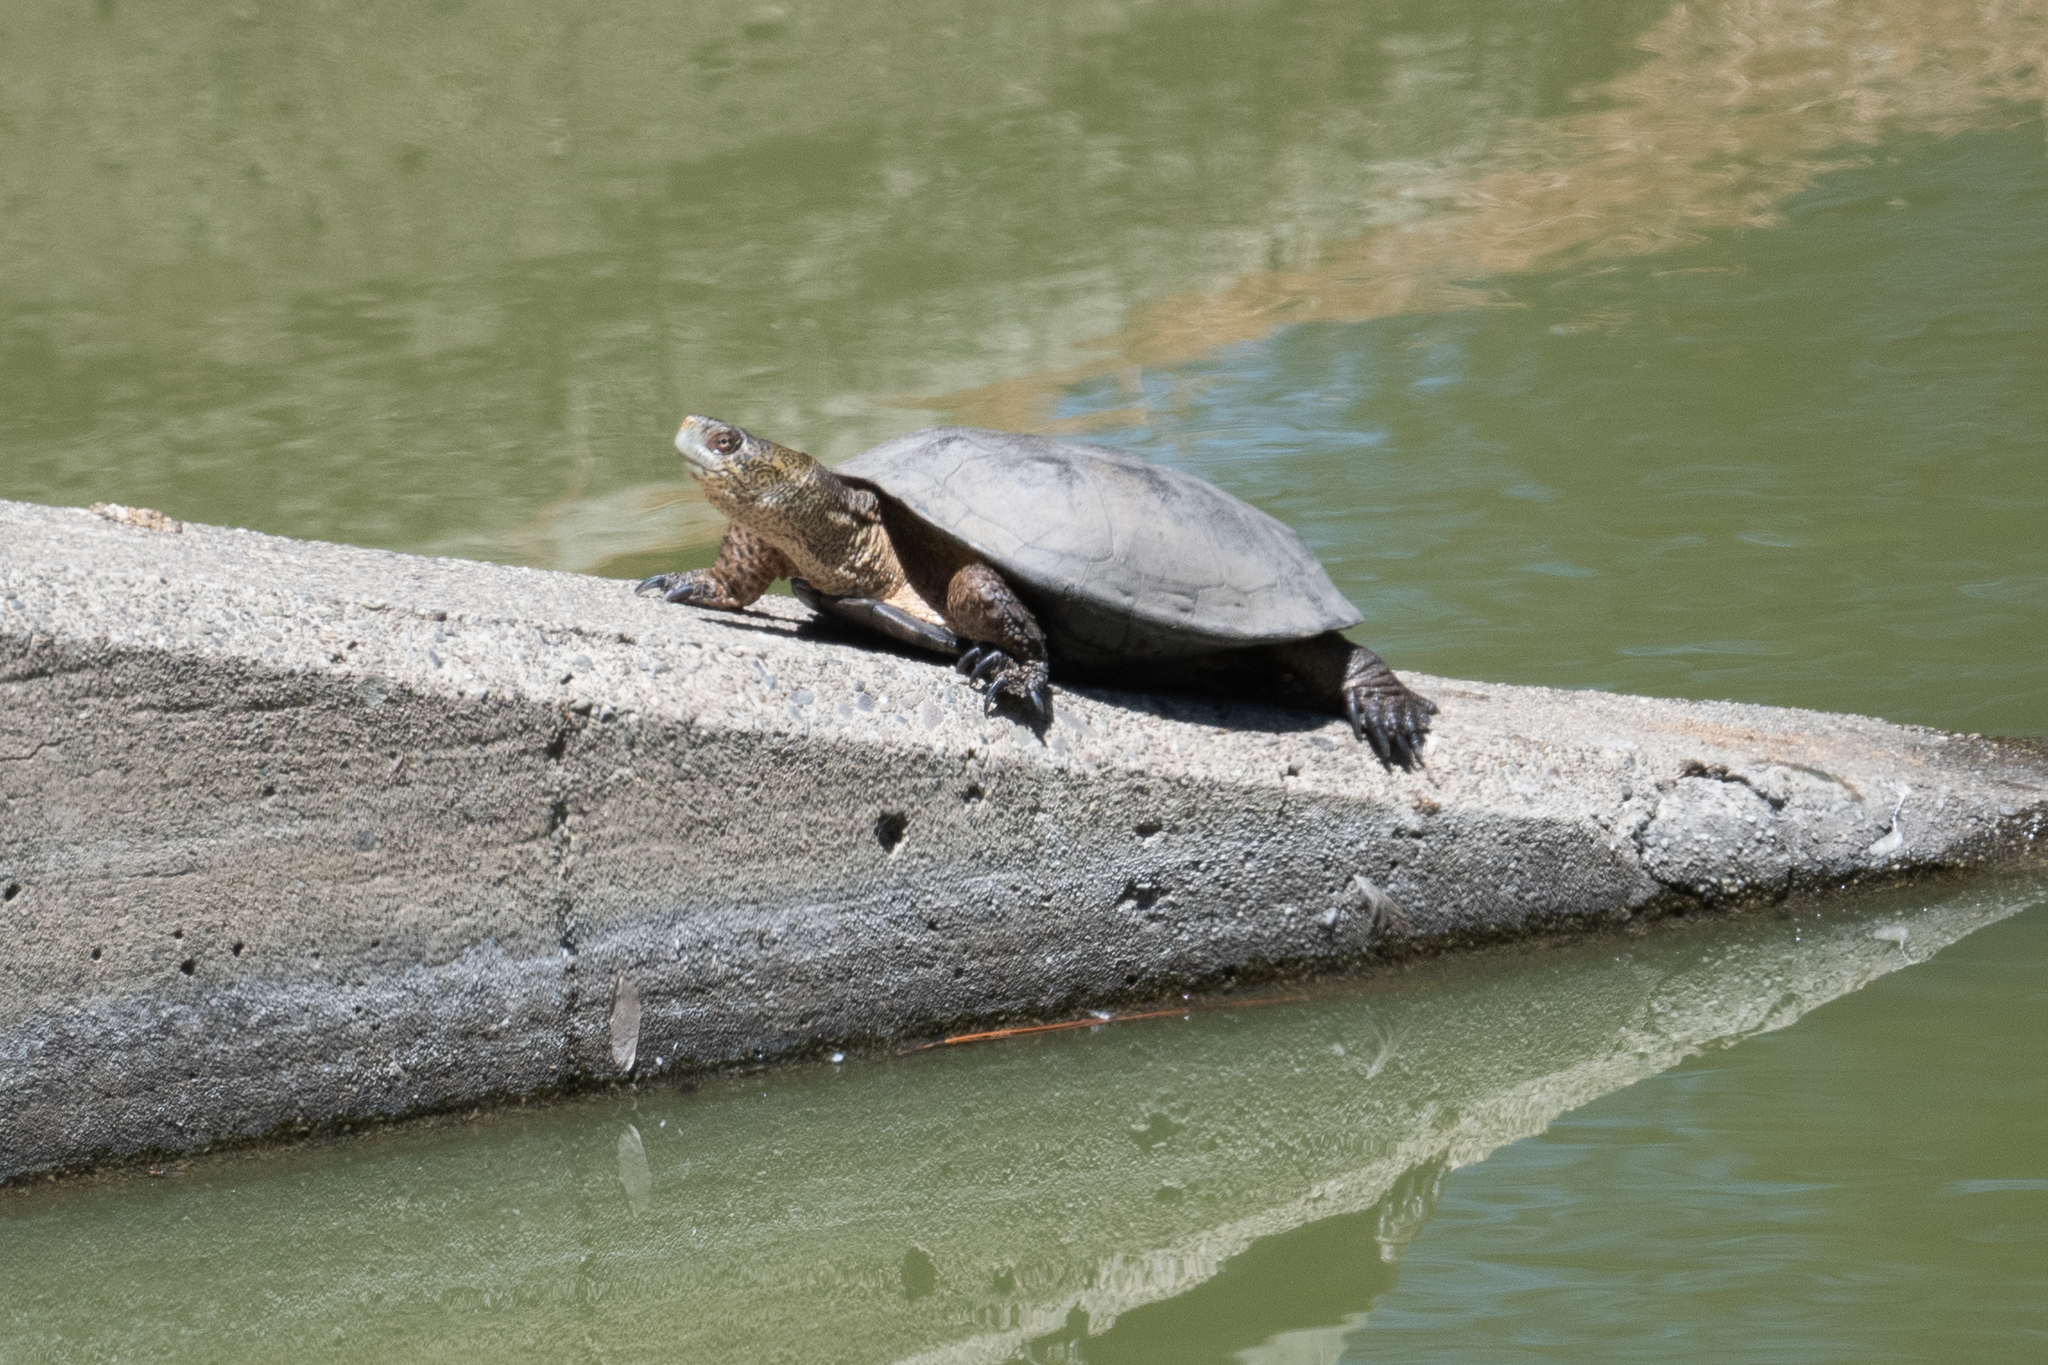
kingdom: Animalia
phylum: Chordata
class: Testudines
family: Emydidae
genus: Actinemys
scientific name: Actinemys marmorata
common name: Western pond turtle
